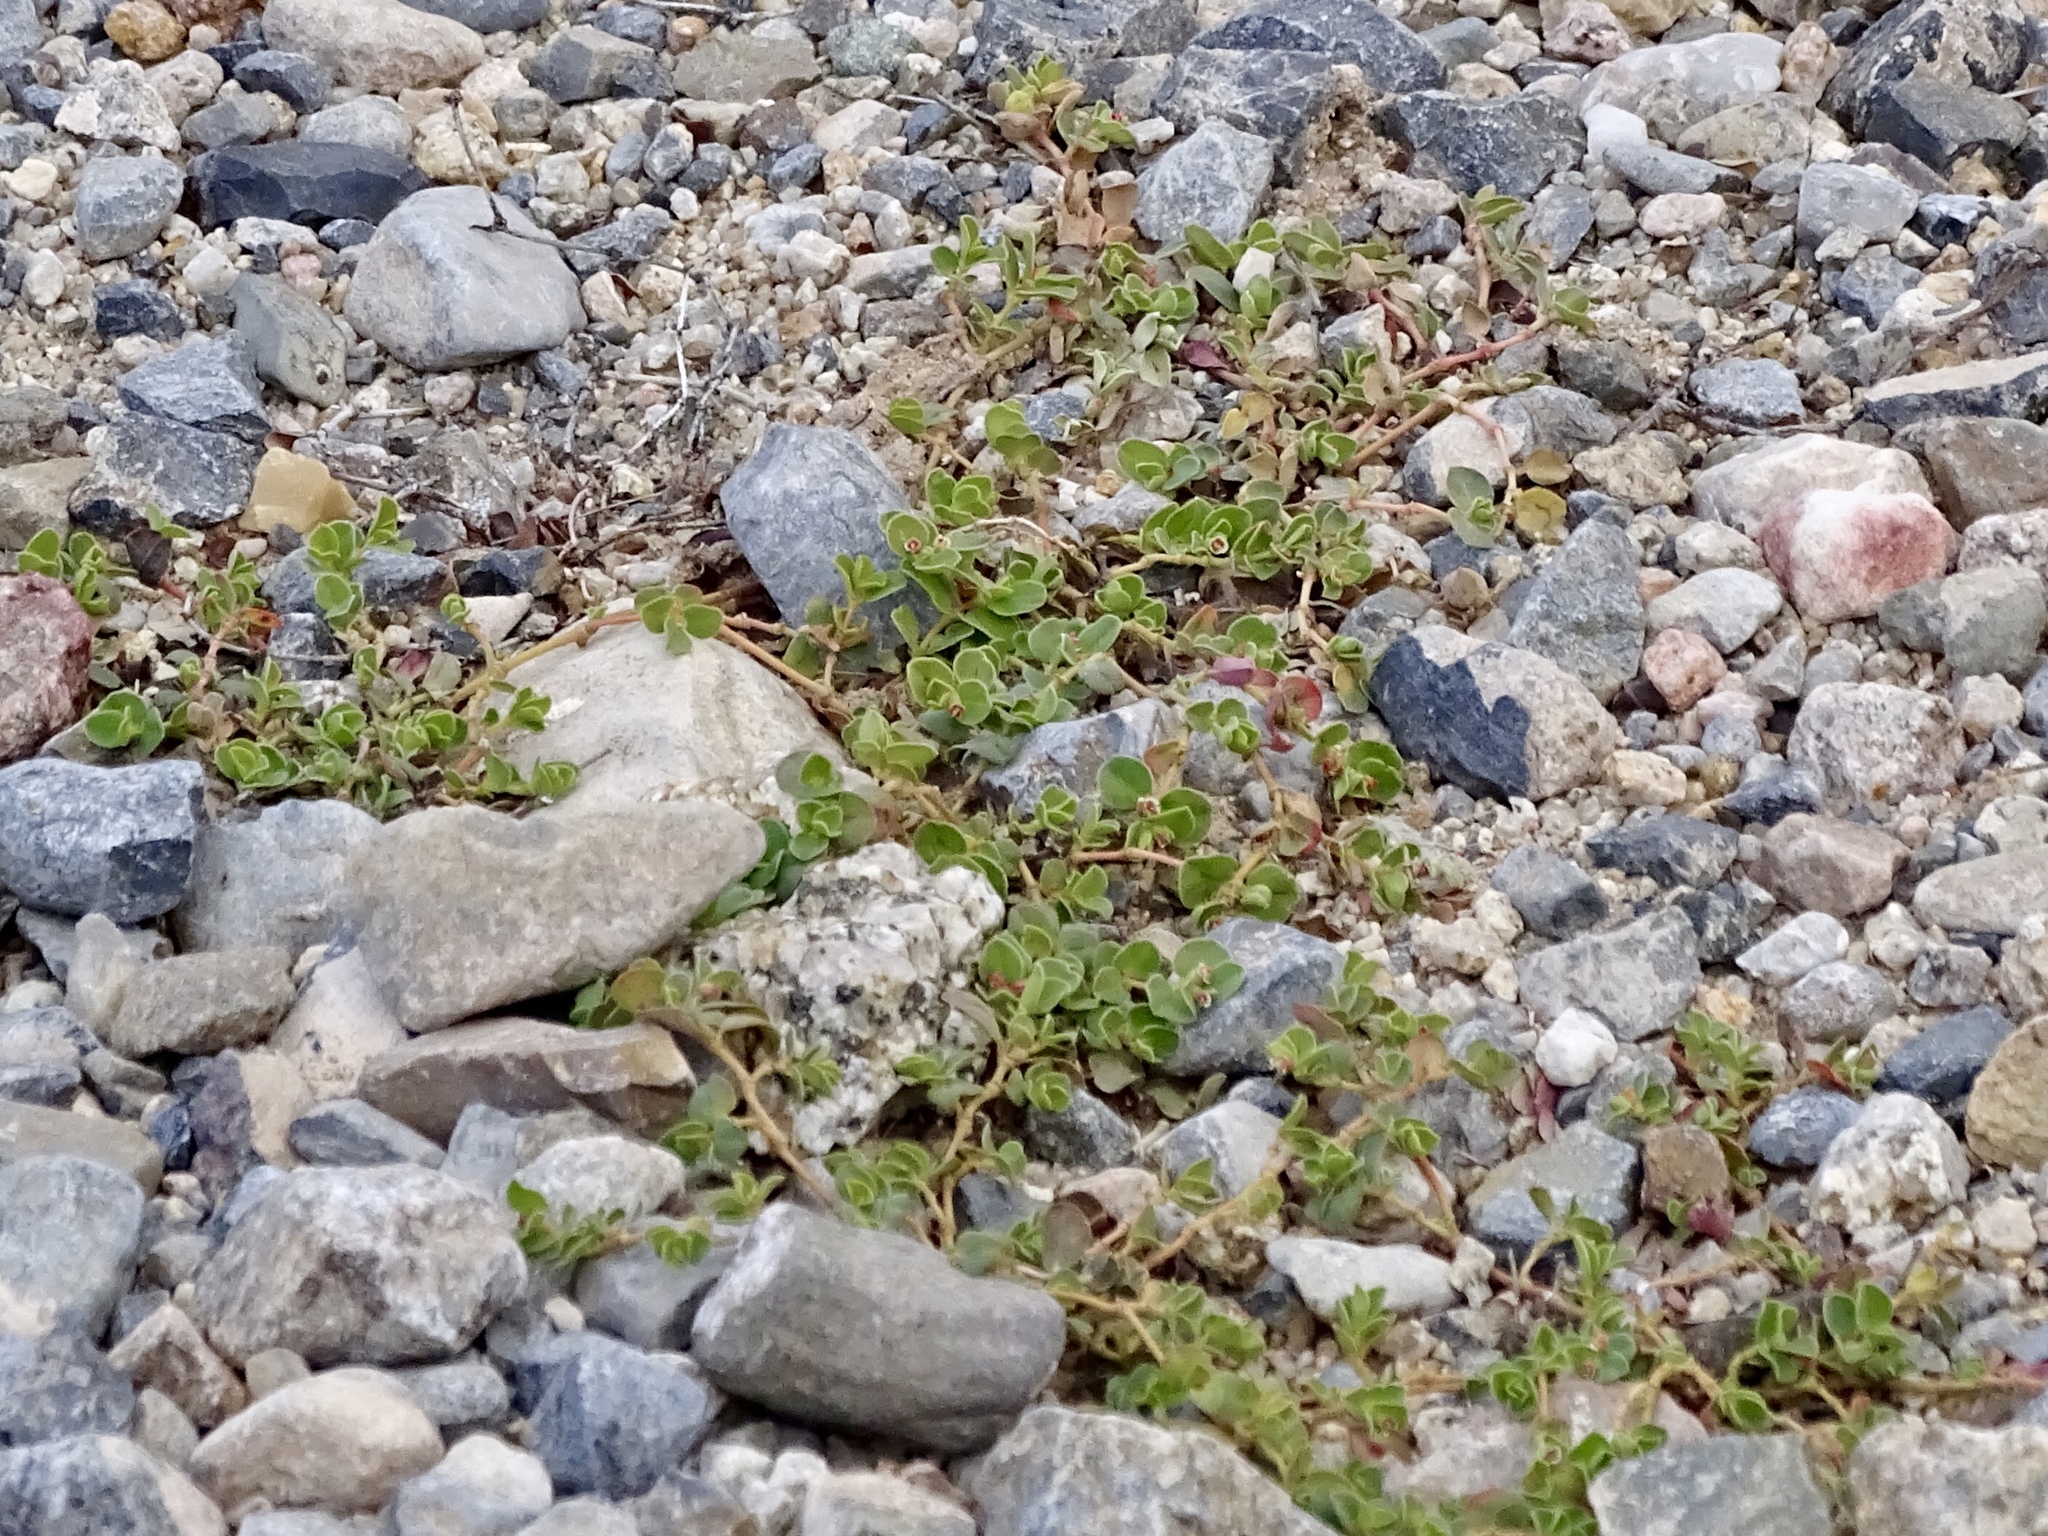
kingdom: Plantae
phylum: Tracheophyta
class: Magnoliopsida
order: Malpighiales
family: Euphorbiaceae
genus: Euphorbia
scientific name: Euphorbia albomarginata
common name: Whitemargin sandmat
